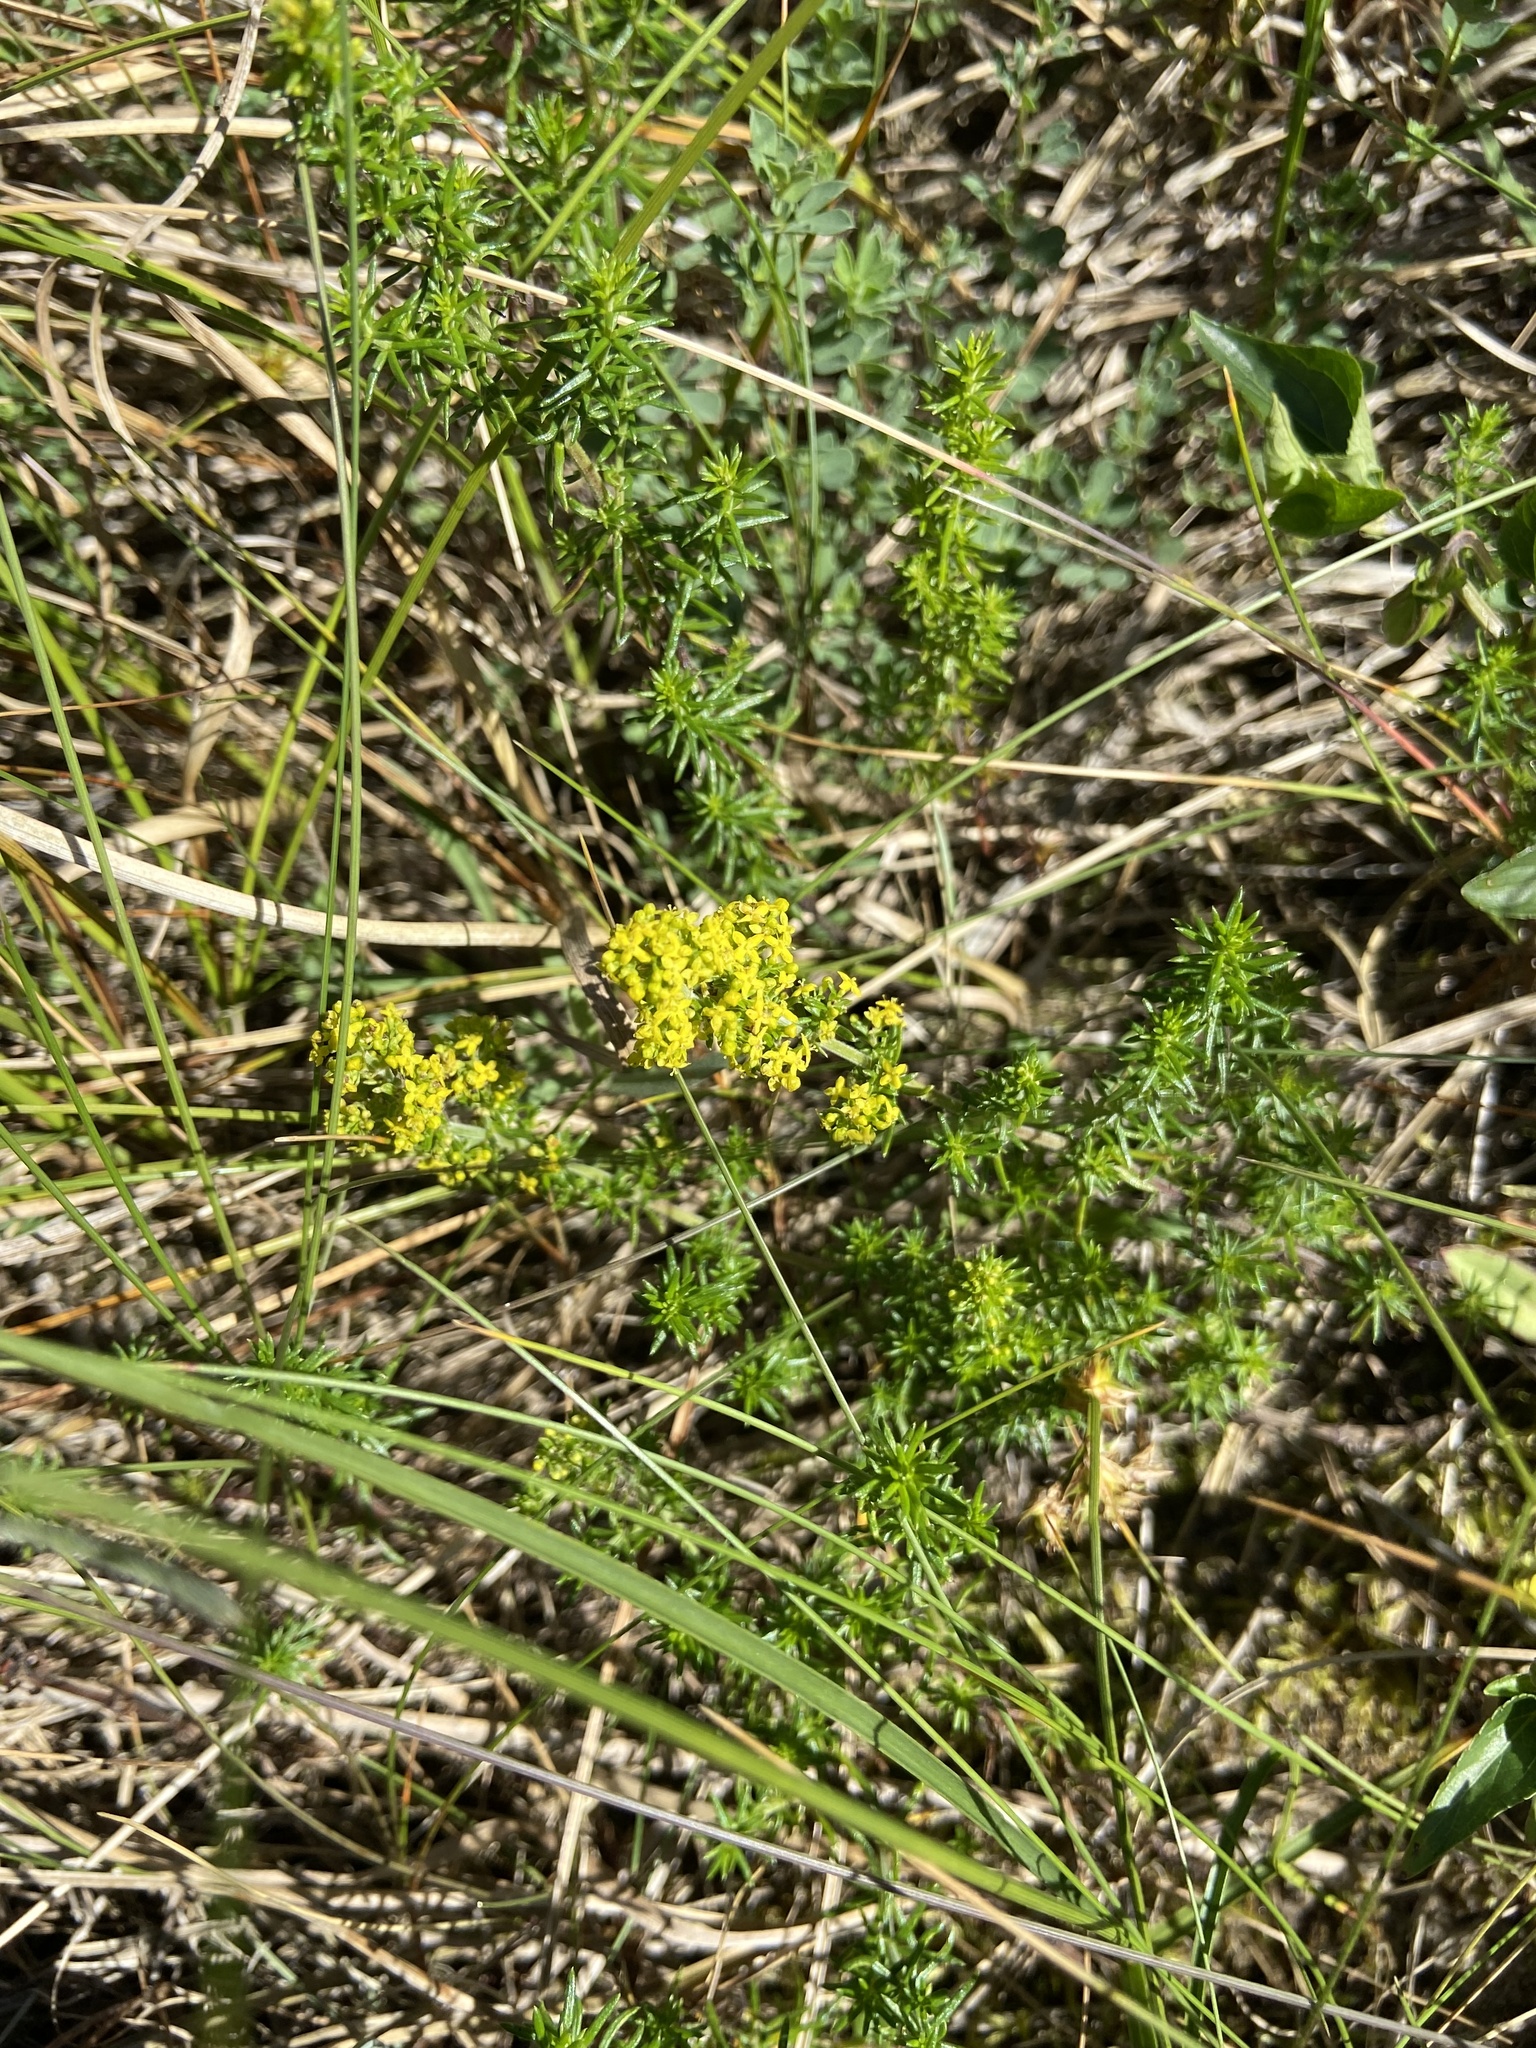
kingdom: Plantae
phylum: Tracheophyta
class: Magnoliopsida
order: Gentianales
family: Rubiaceae
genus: Galium
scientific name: Galium verum
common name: Lady's bedstraw
